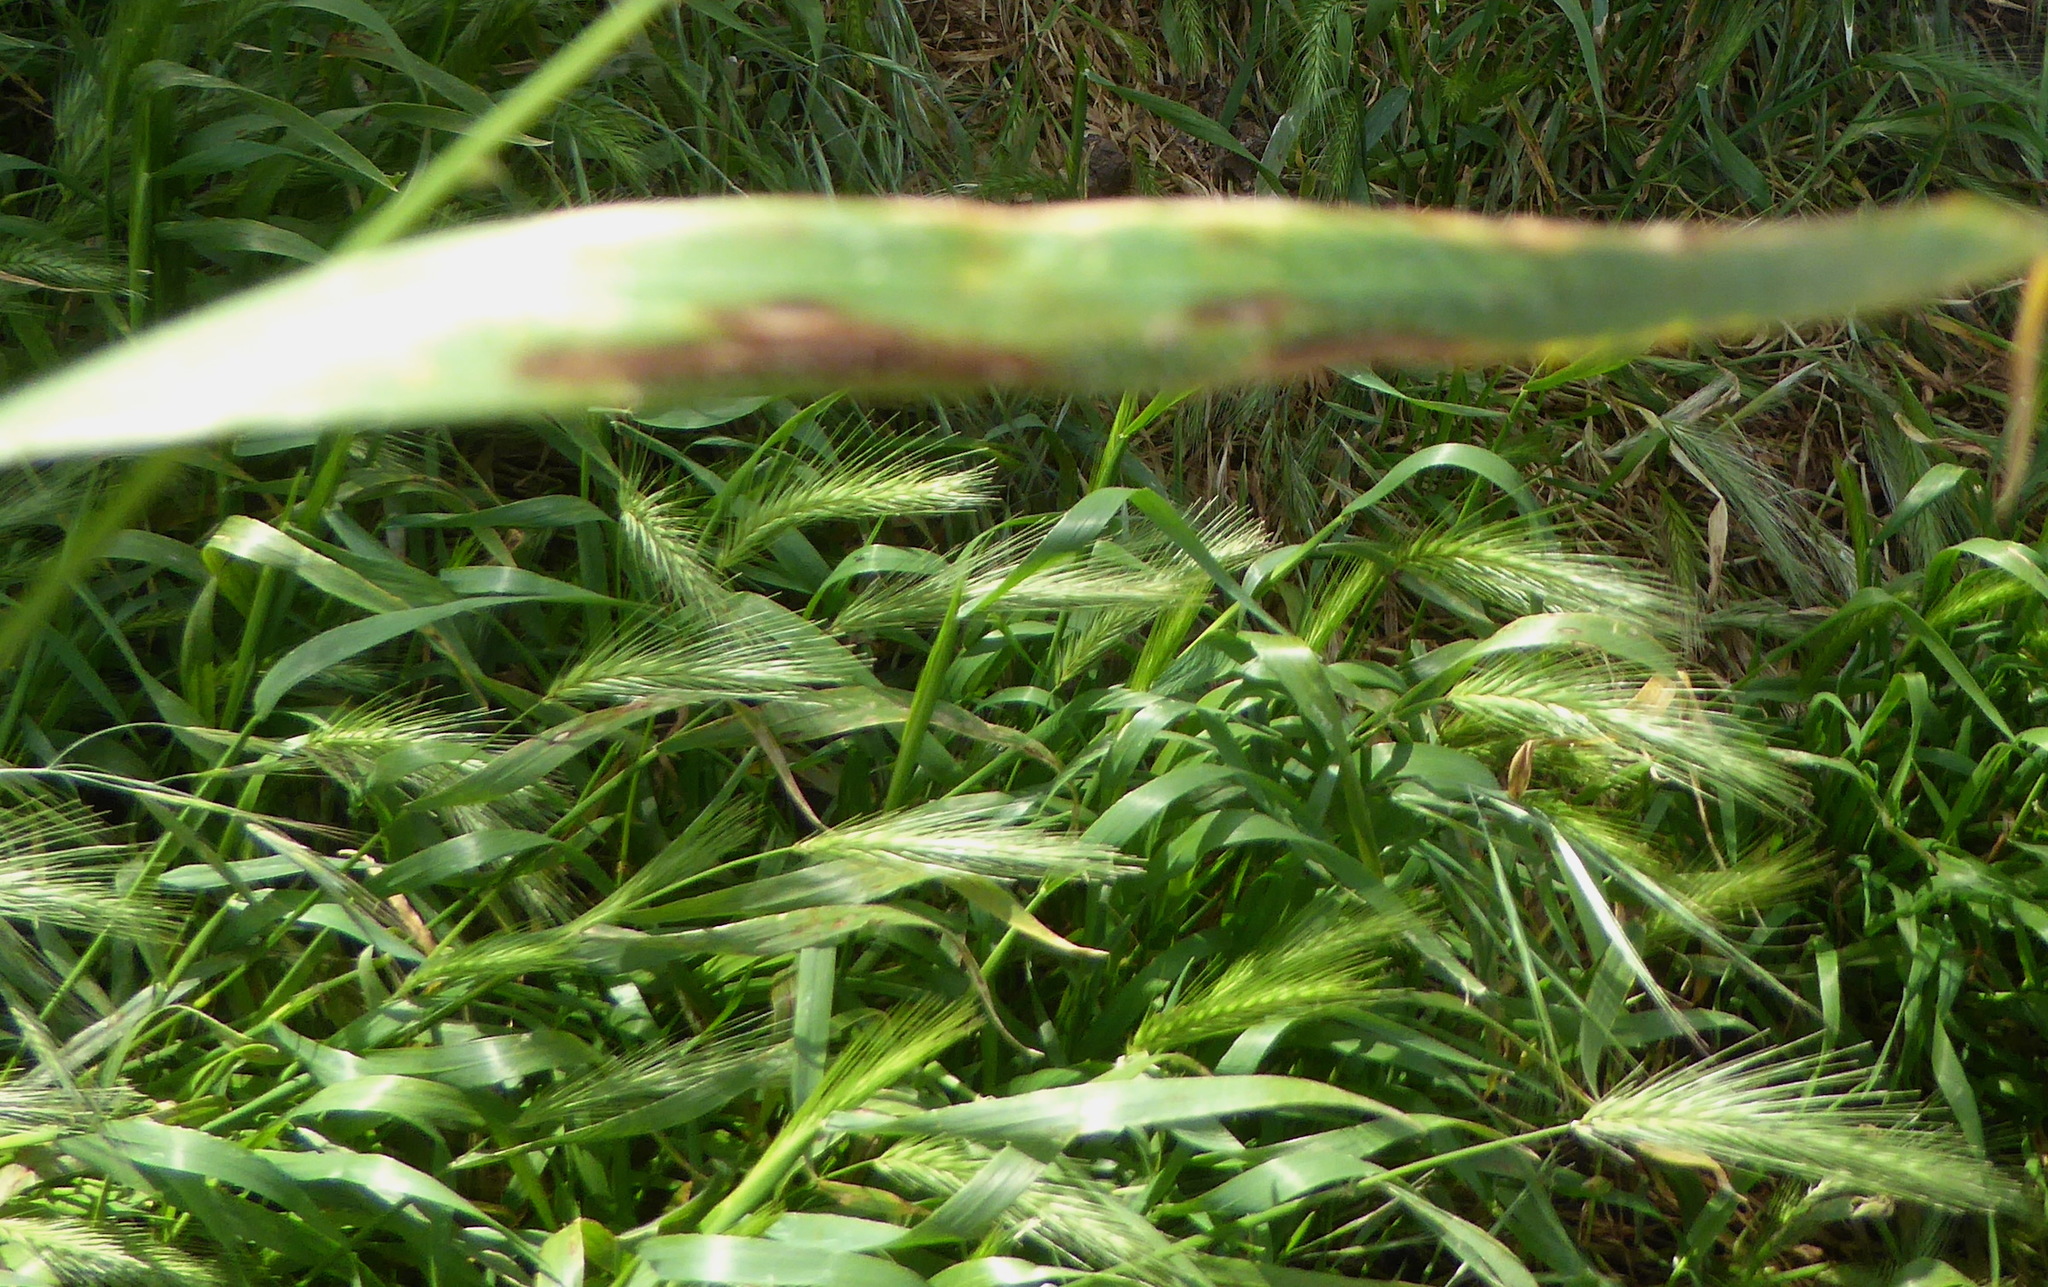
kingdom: Plantae
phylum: Tracheophyta
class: Liliopsida
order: Poales
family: Poaceae
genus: Hordeum
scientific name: Hordeum murinum
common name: Wall barley
